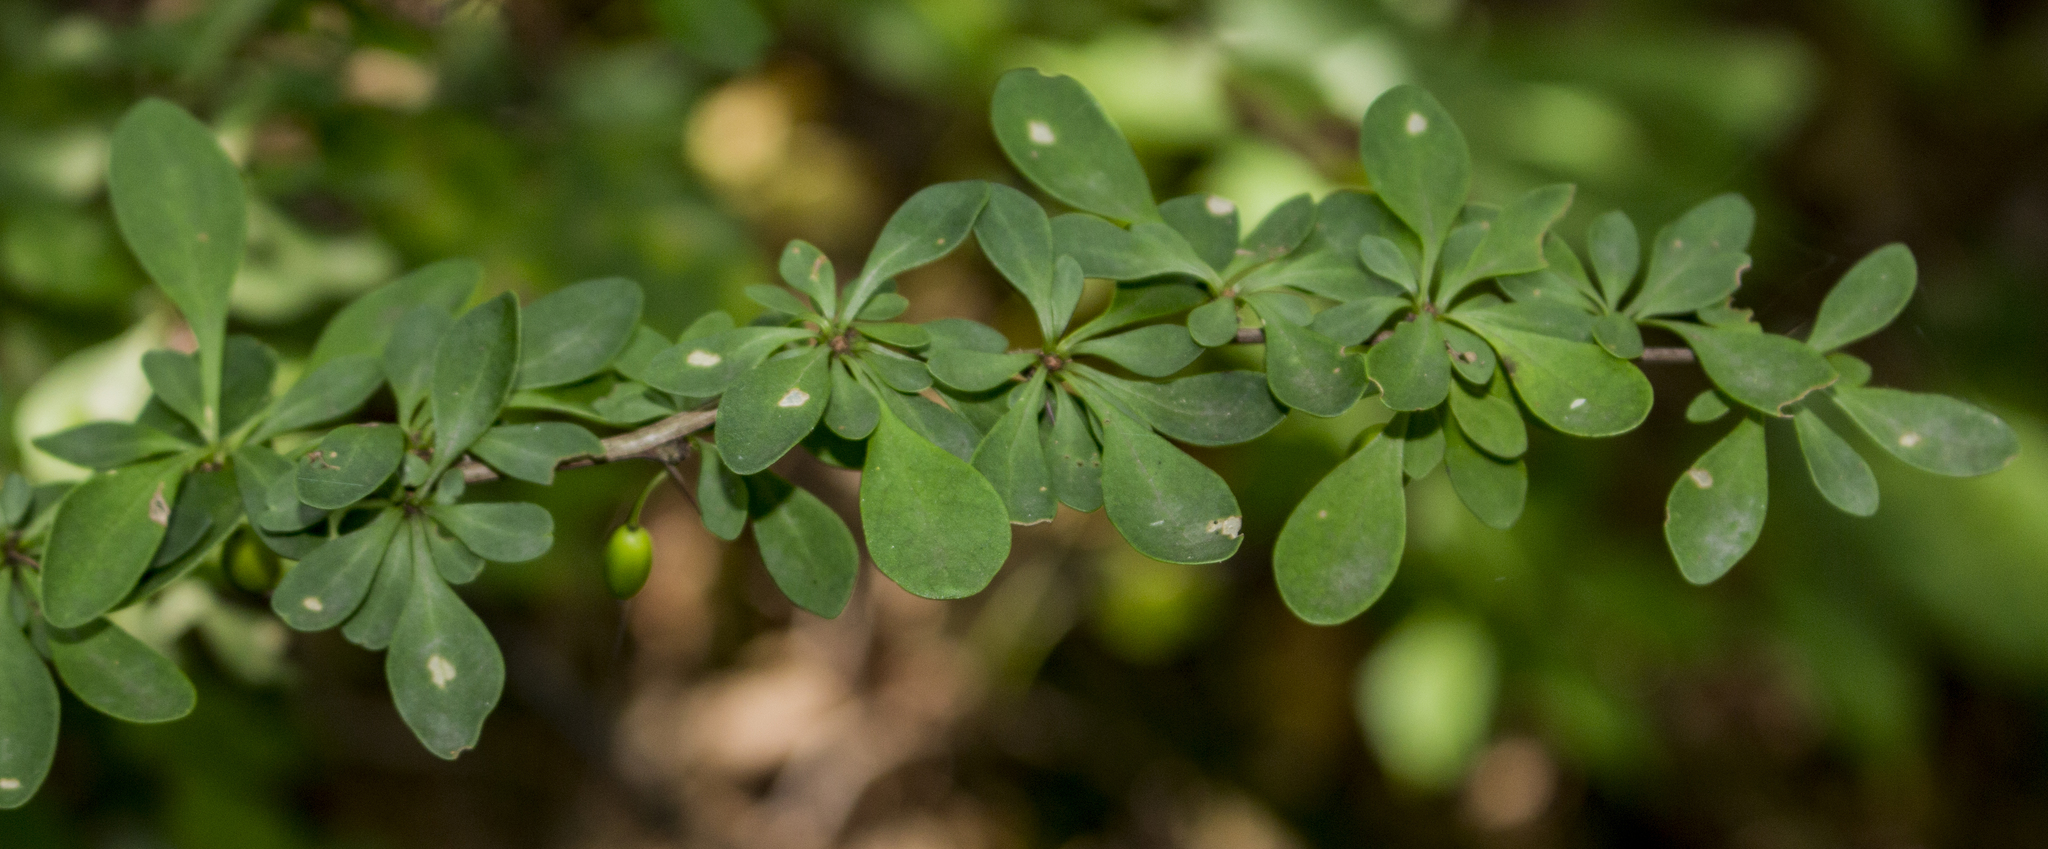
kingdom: Plantae
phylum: Tracheophyta
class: Magnoliopsida
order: Ranunculales
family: Berberidaceae
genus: Berberis
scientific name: Berberis thunbergii
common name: Japanese barberry
